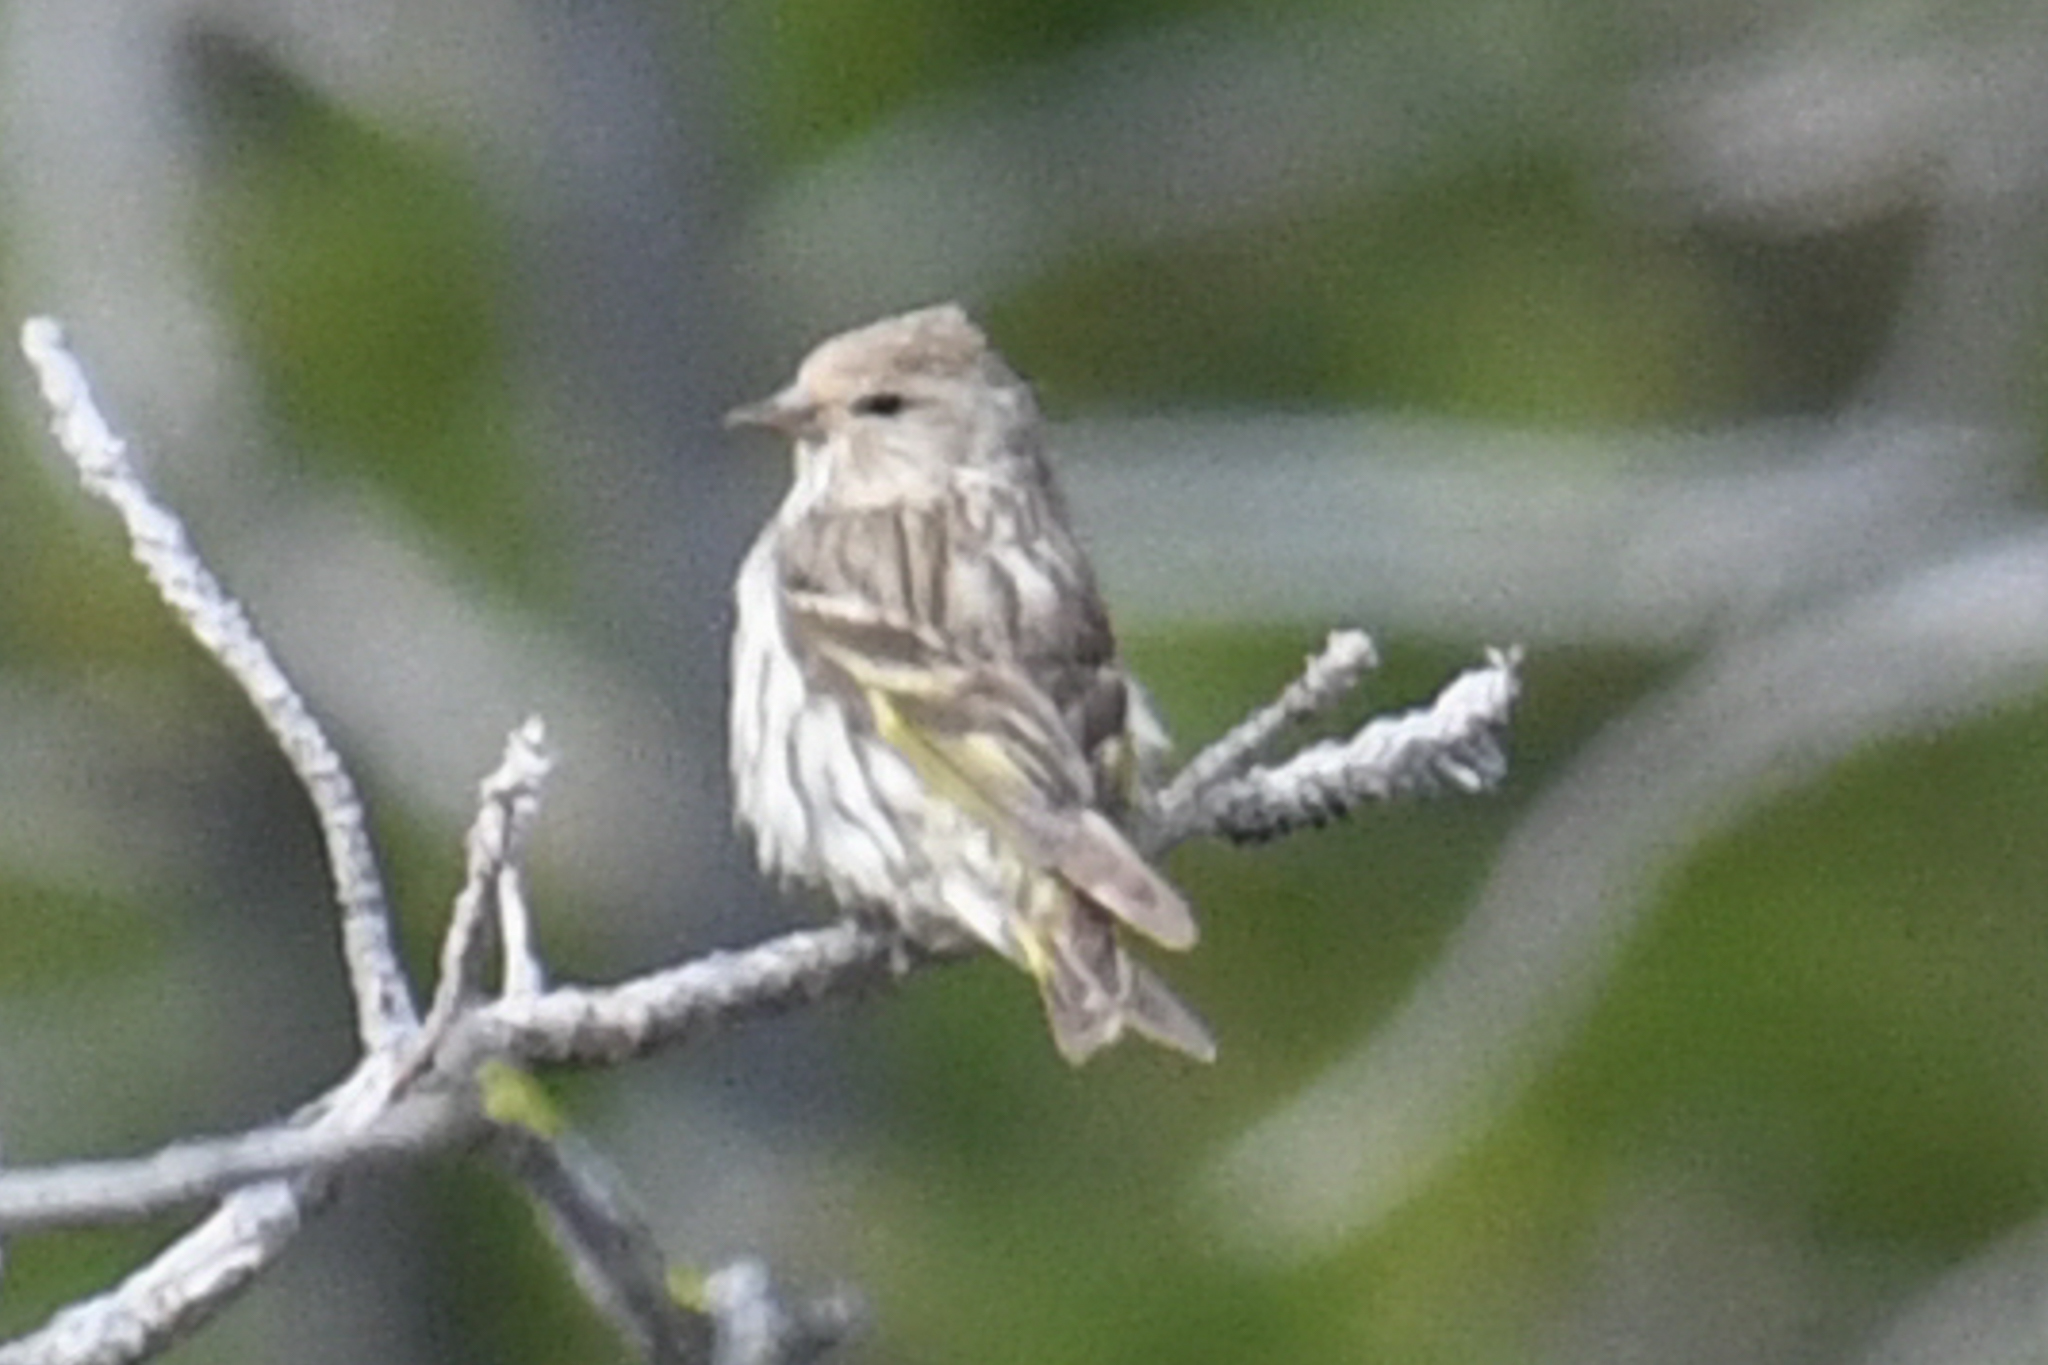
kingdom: Animalia
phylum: Chordata
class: Aves
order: Passeriformes
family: Fringillidae
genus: Spinus
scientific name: Spinus pinus
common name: Pine siskin
